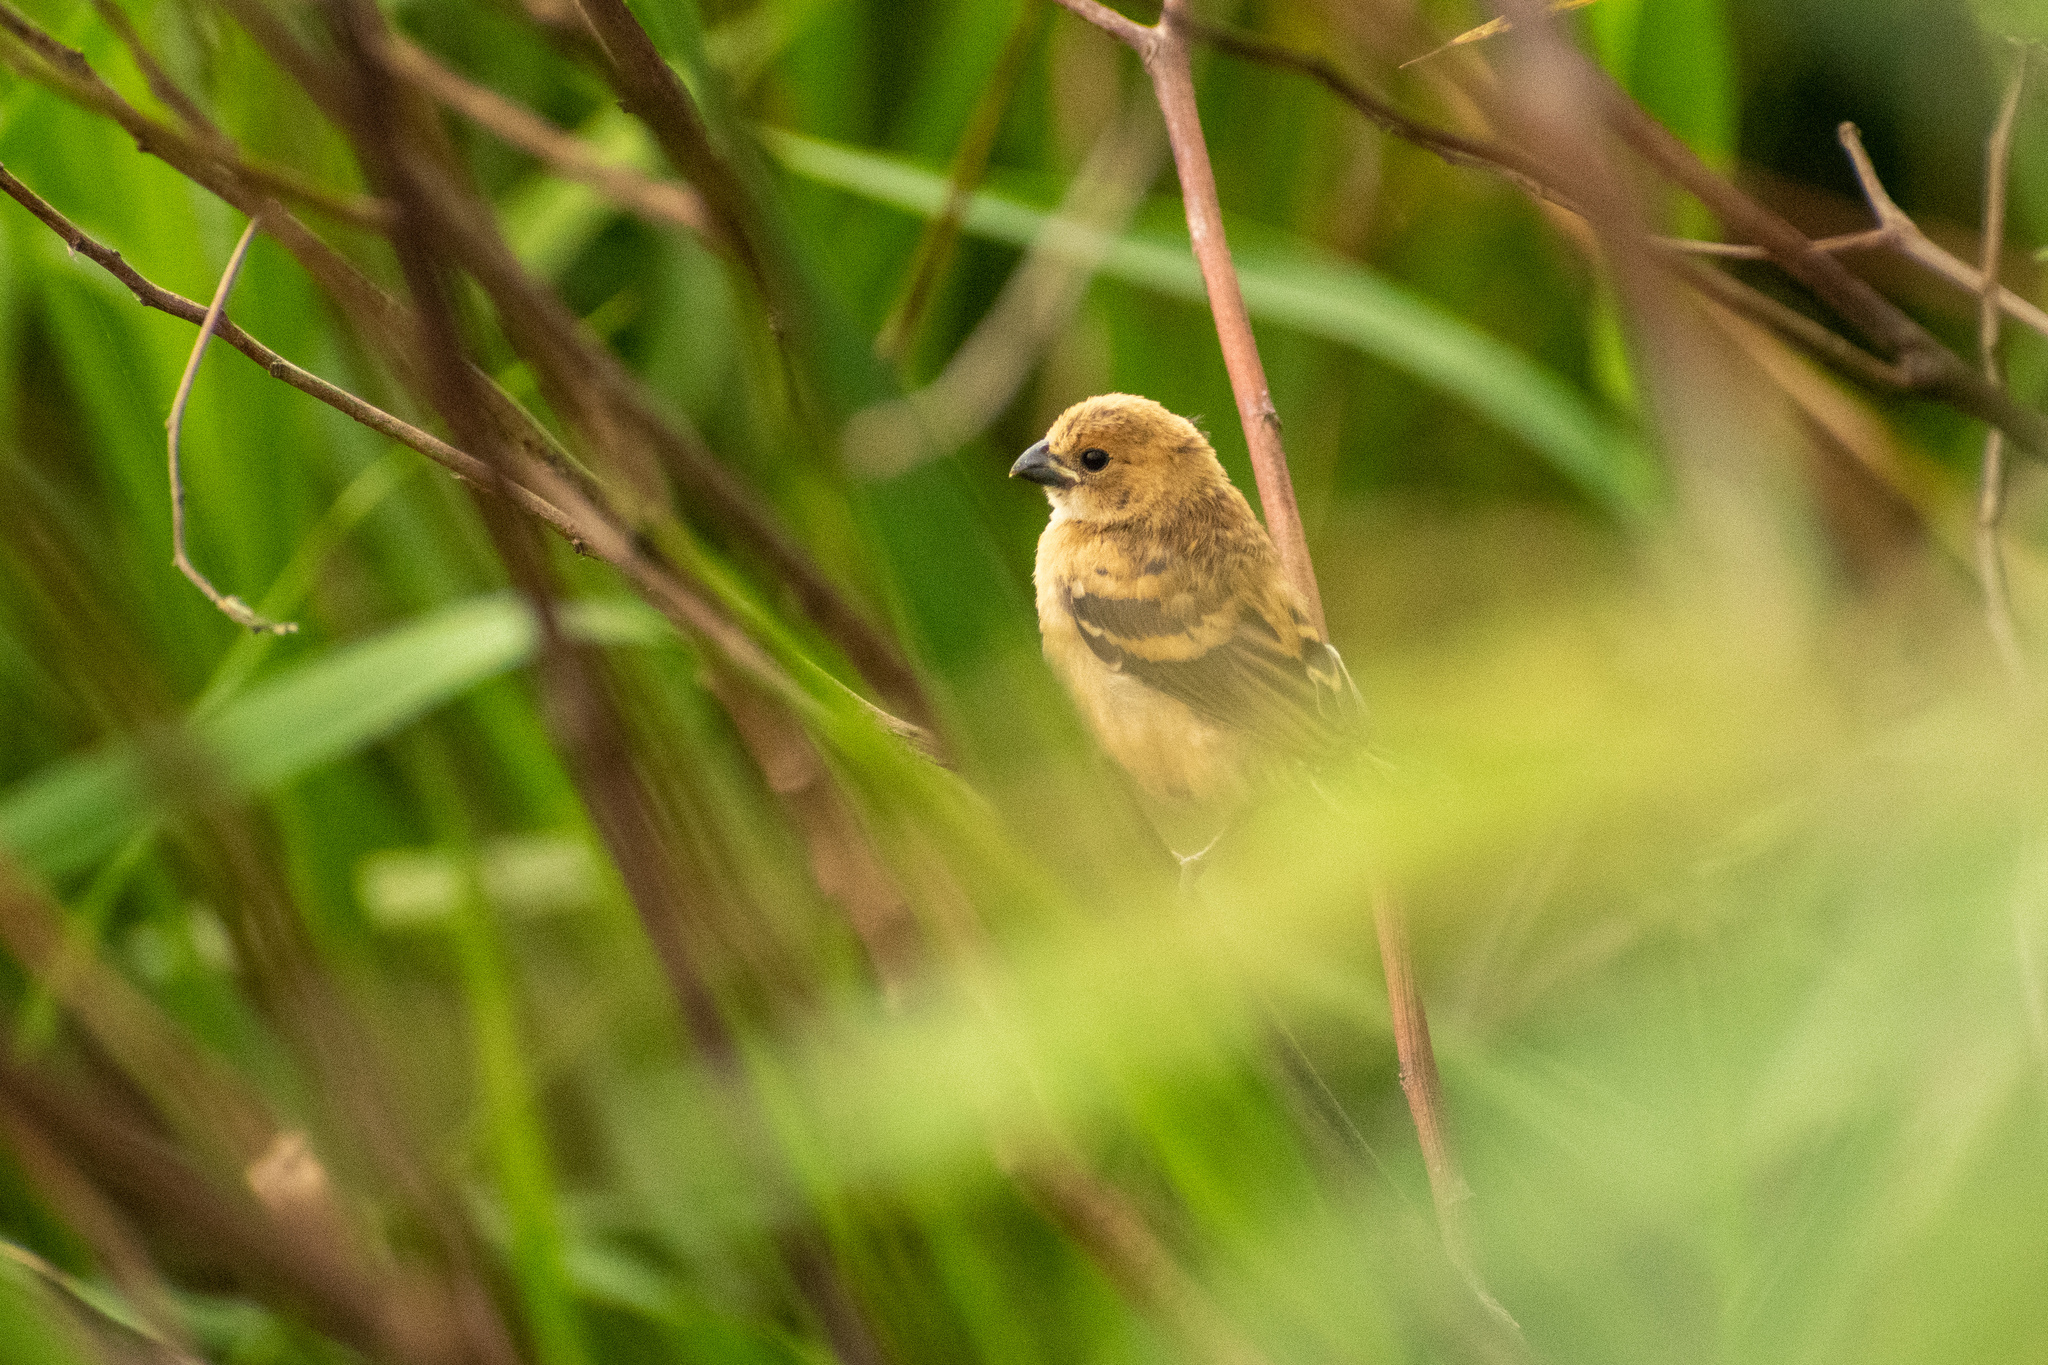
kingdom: Animalia
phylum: Chordata
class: Aves
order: Passeriformes
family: Thraupidae
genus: Sporophila
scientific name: Sporophila collaris
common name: Rusty-collared seedeater
